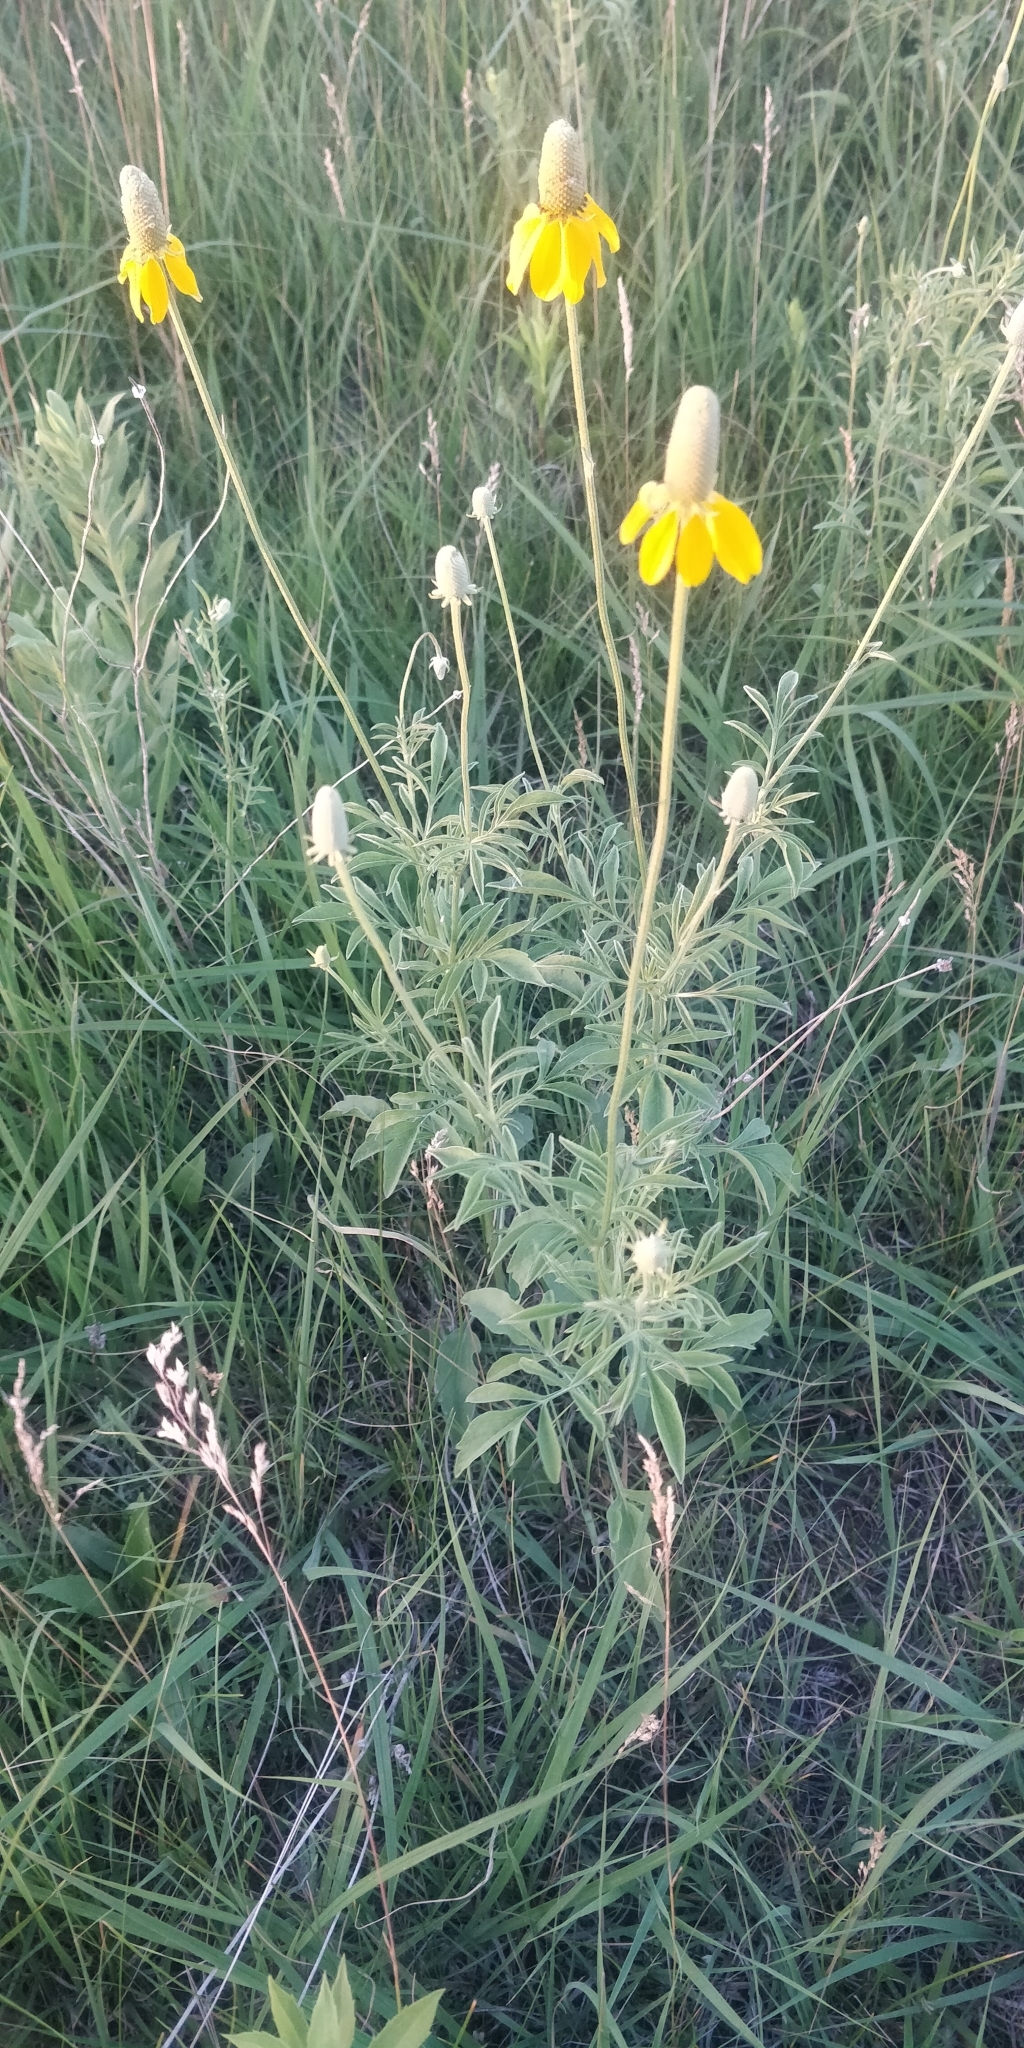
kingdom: Plantae
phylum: Tracheophyta
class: Magnoliopsida
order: Asterales
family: Asteraceae
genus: Ratibida
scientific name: Ratibida columnifera
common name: Prairie coneflower
